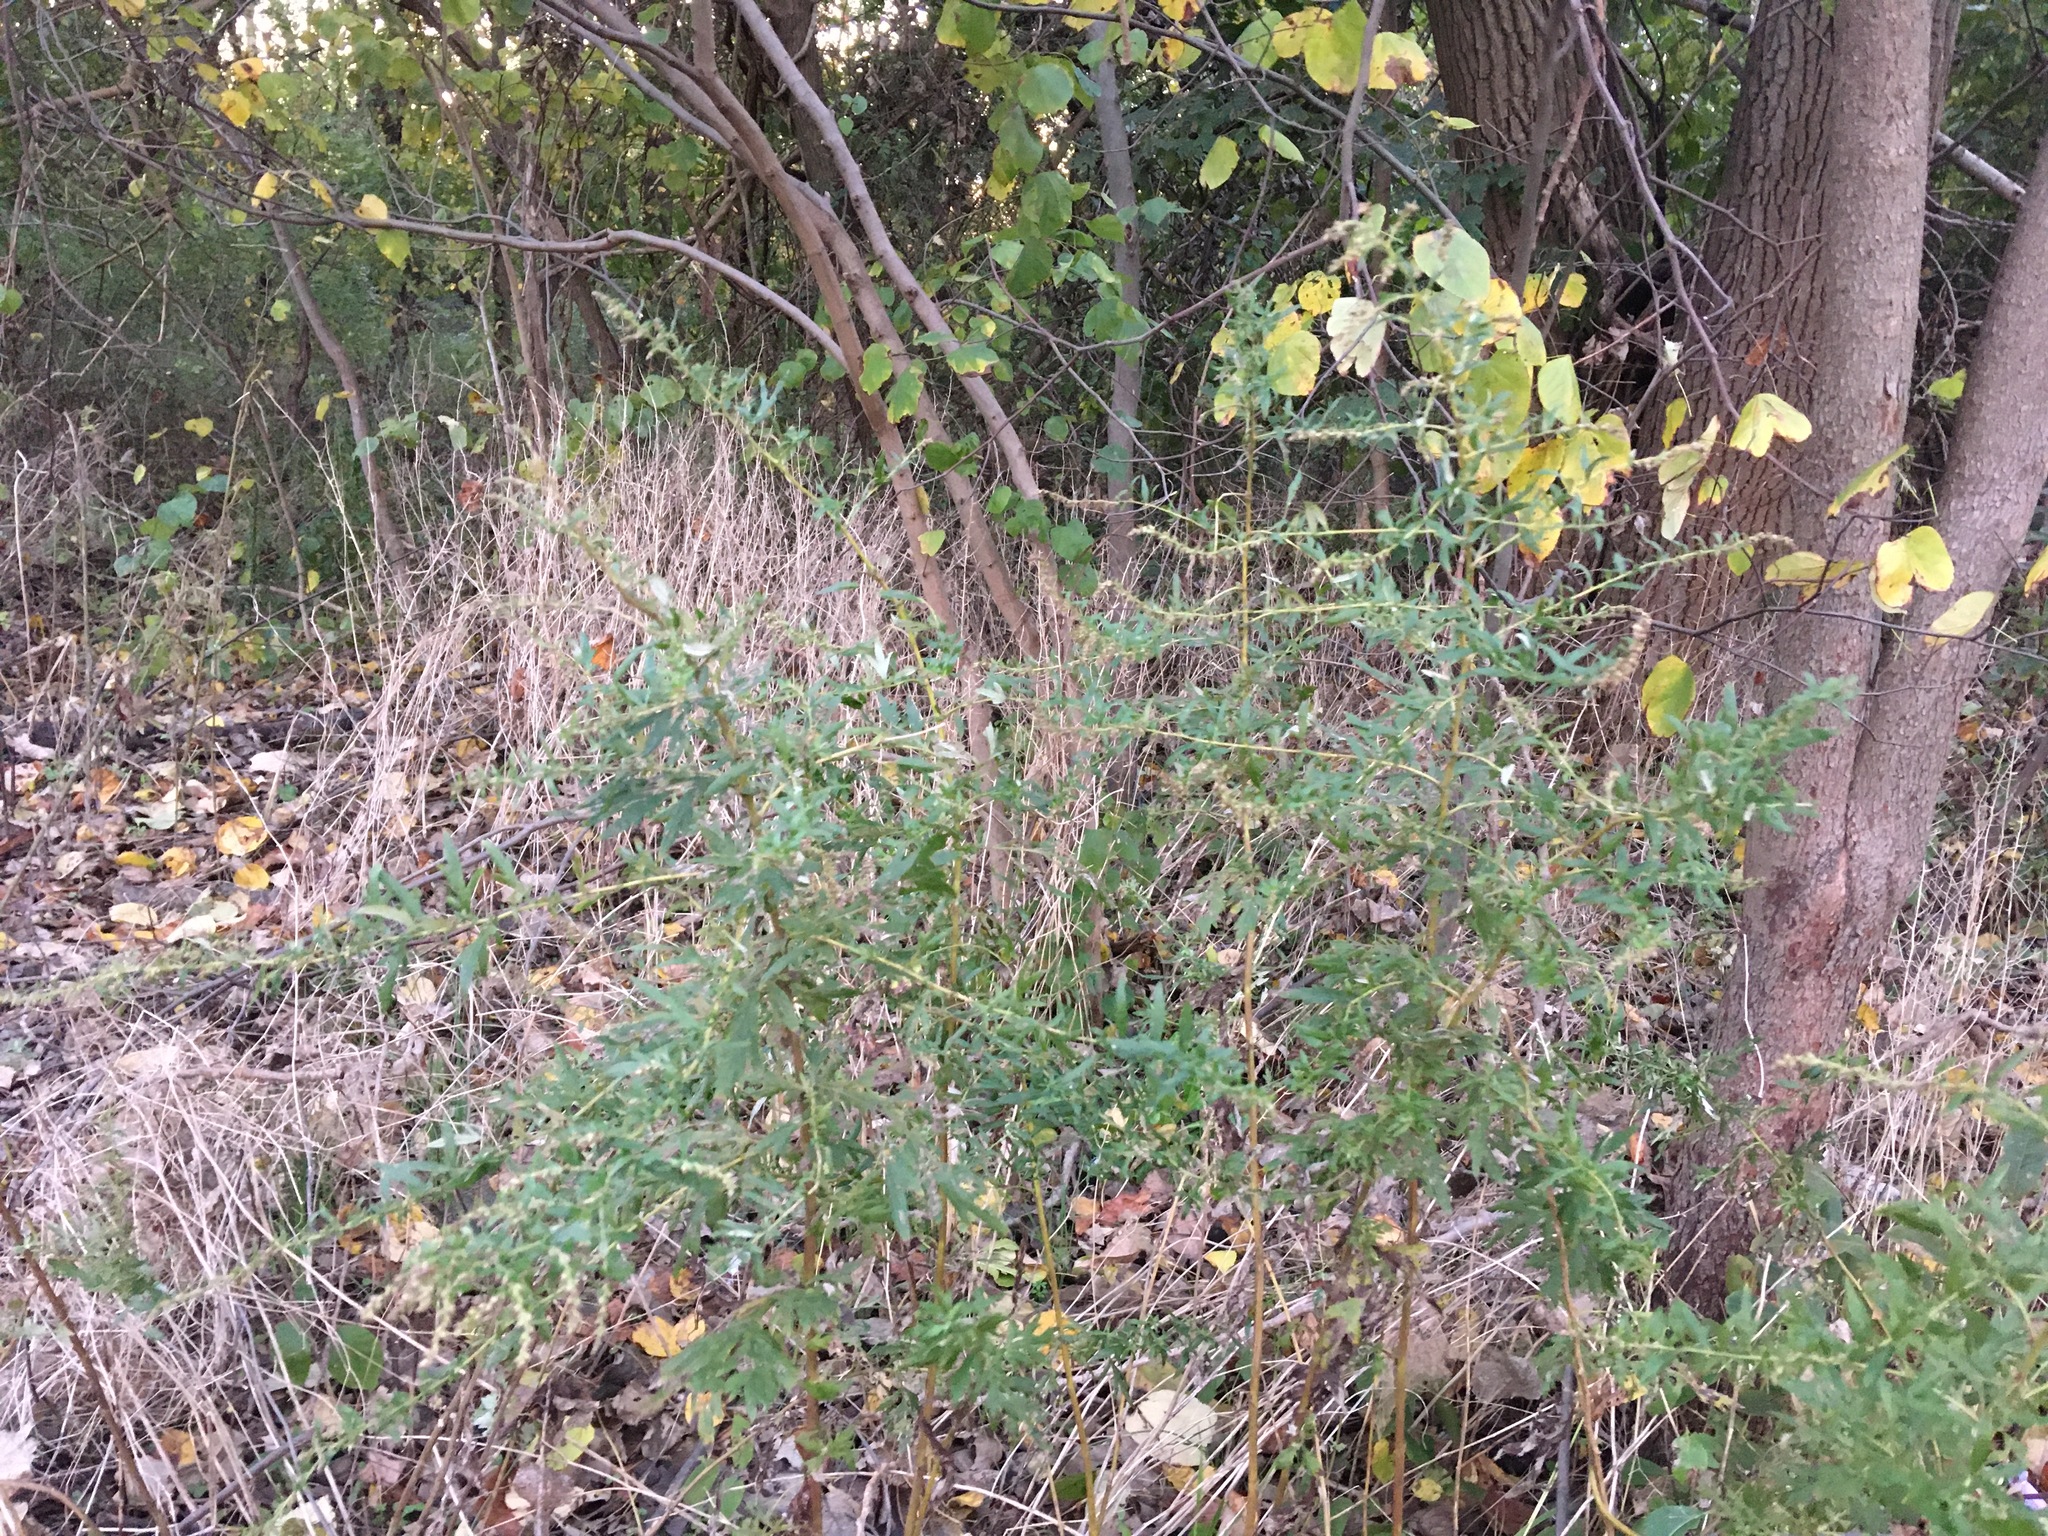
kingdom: Plantae
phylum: Tracheophyta
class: Magnoliopsida
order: Asterales
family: Asteraceae
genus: Artemisia
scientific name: Artemisia vulgaris
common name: Mugwort
